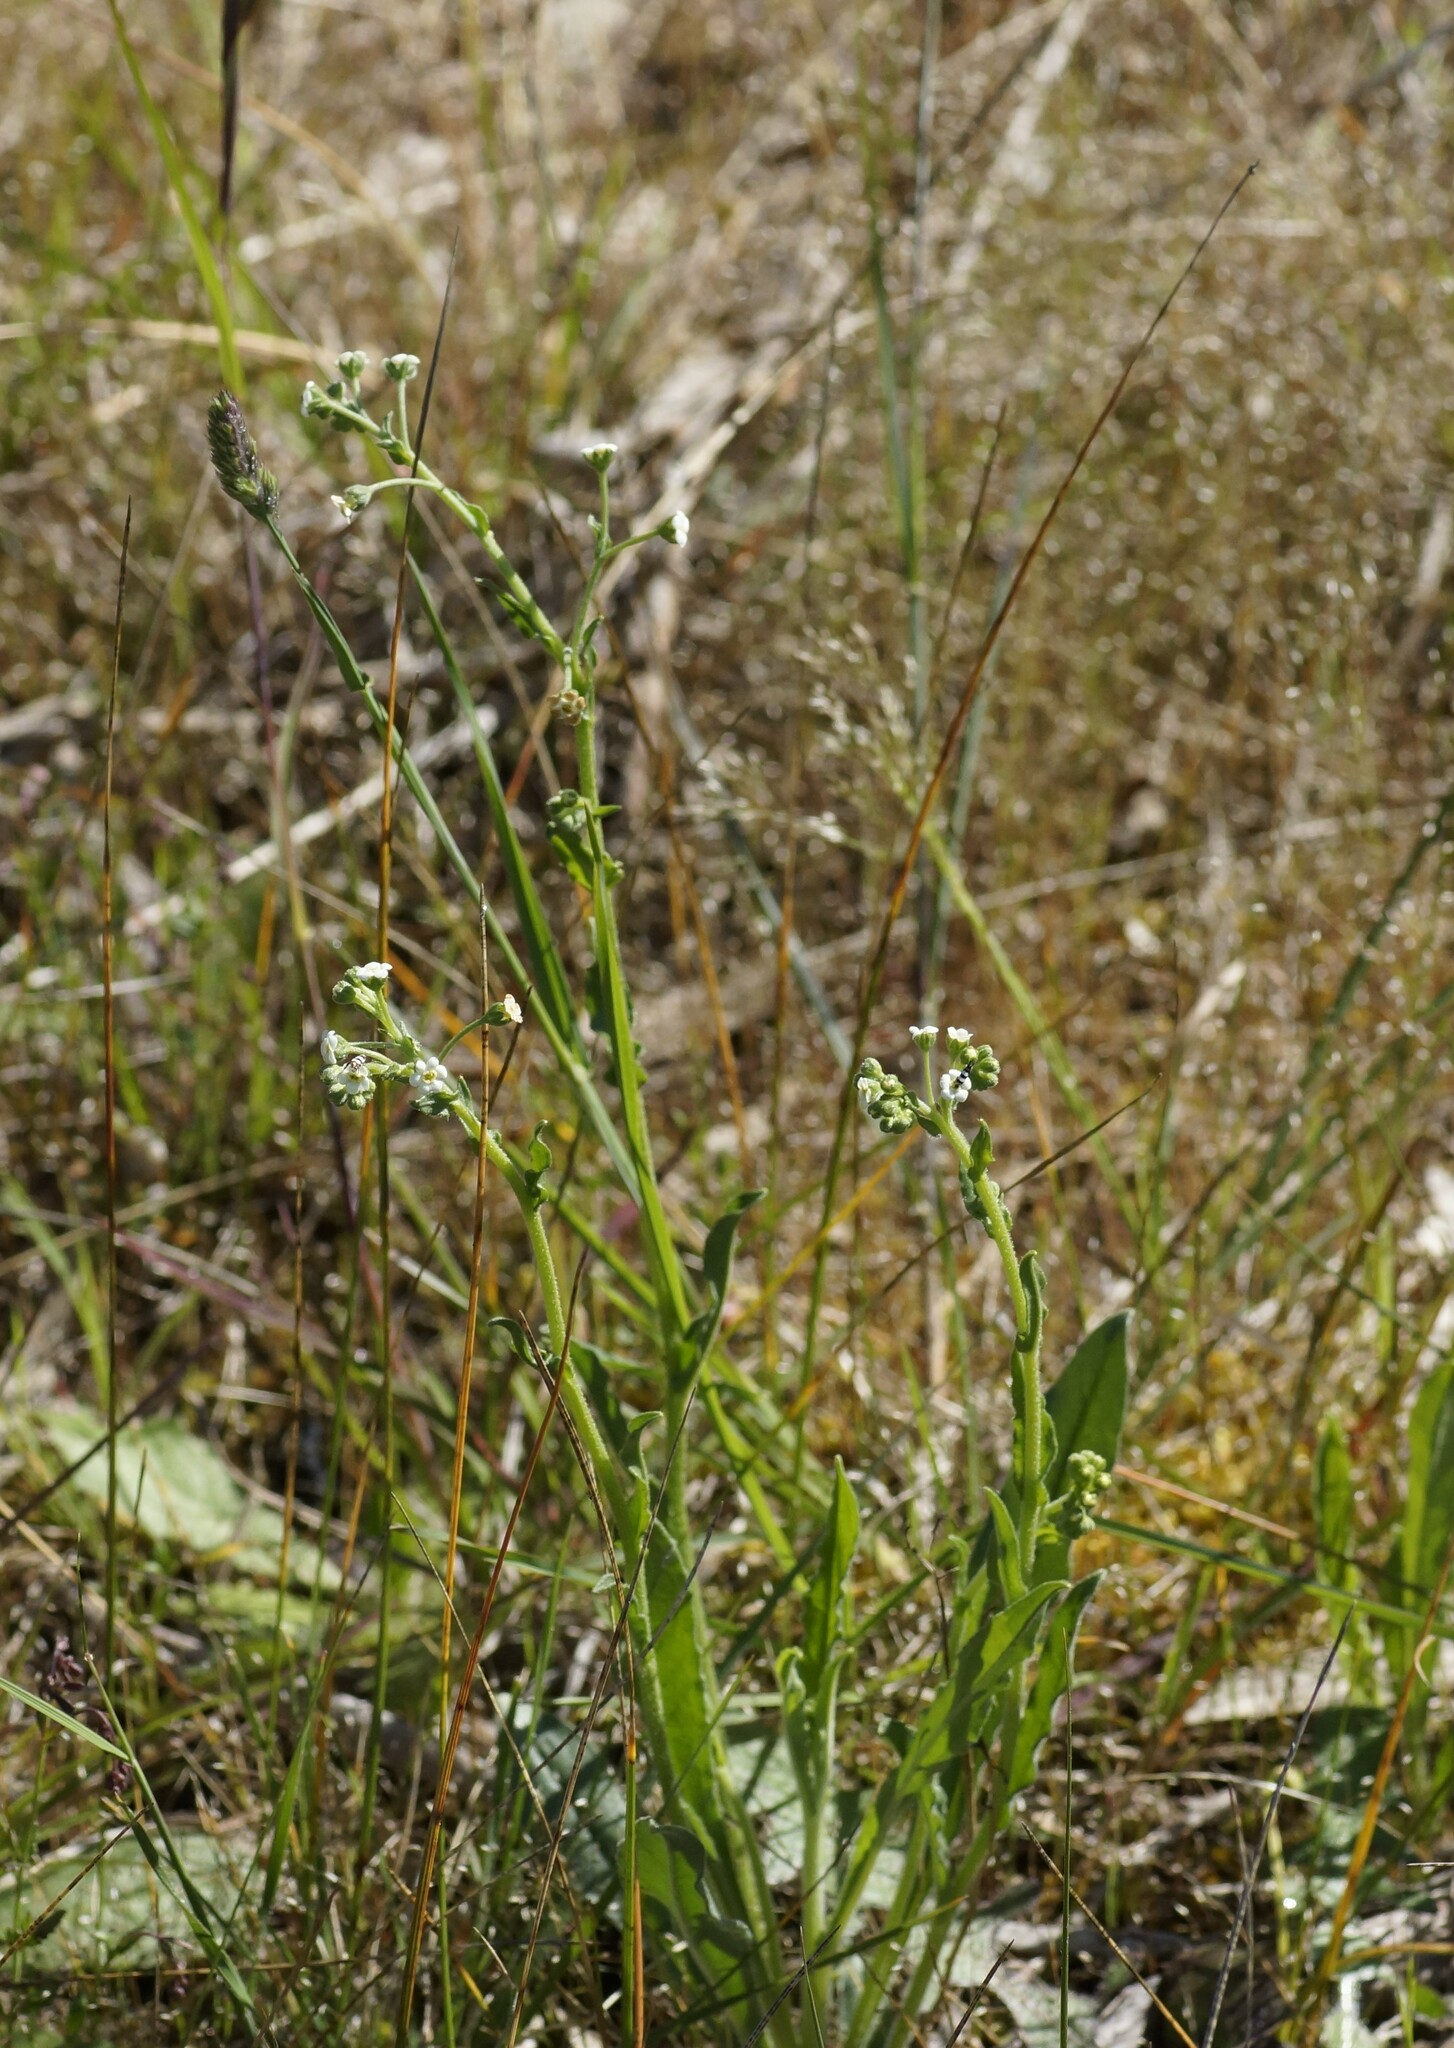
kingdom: Plantae
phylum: Tracheophyta
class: Magnoliopsida
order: Boraginales
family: Boraginaceae
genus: Hackelia
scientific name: Hackelia suaveolens
